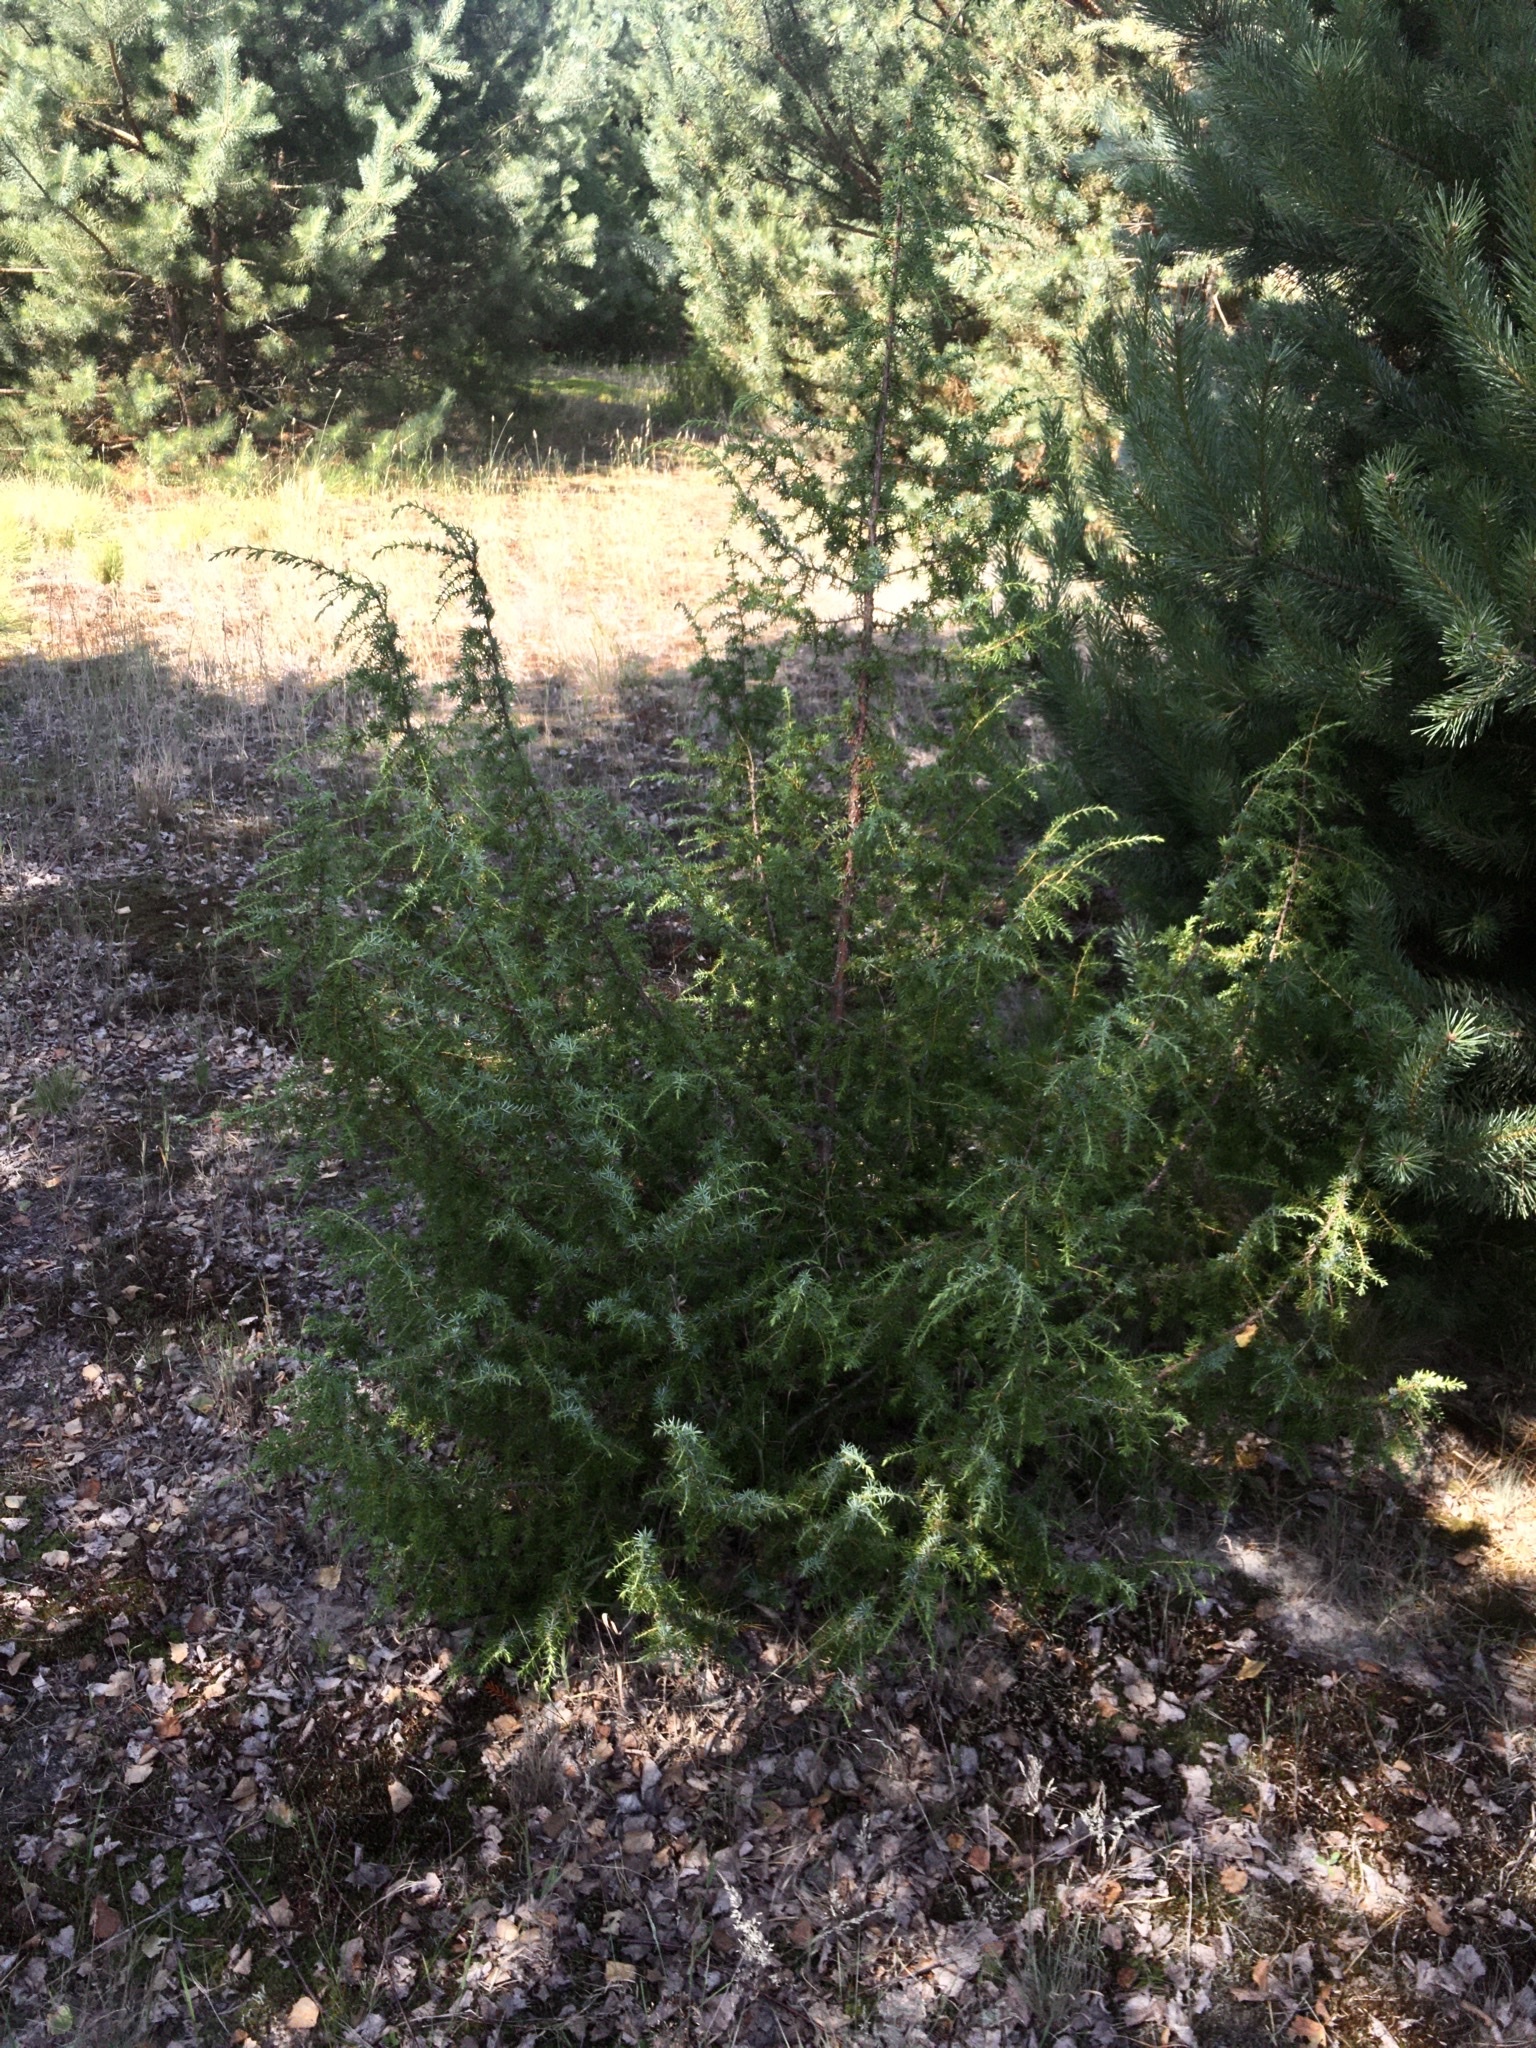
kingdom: Plantae
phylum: Tracheophyta
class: Pinopsida
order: Pinales
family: Cupressaceae
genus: Juniperus
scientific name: Juniperus communis
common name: Common juniper
